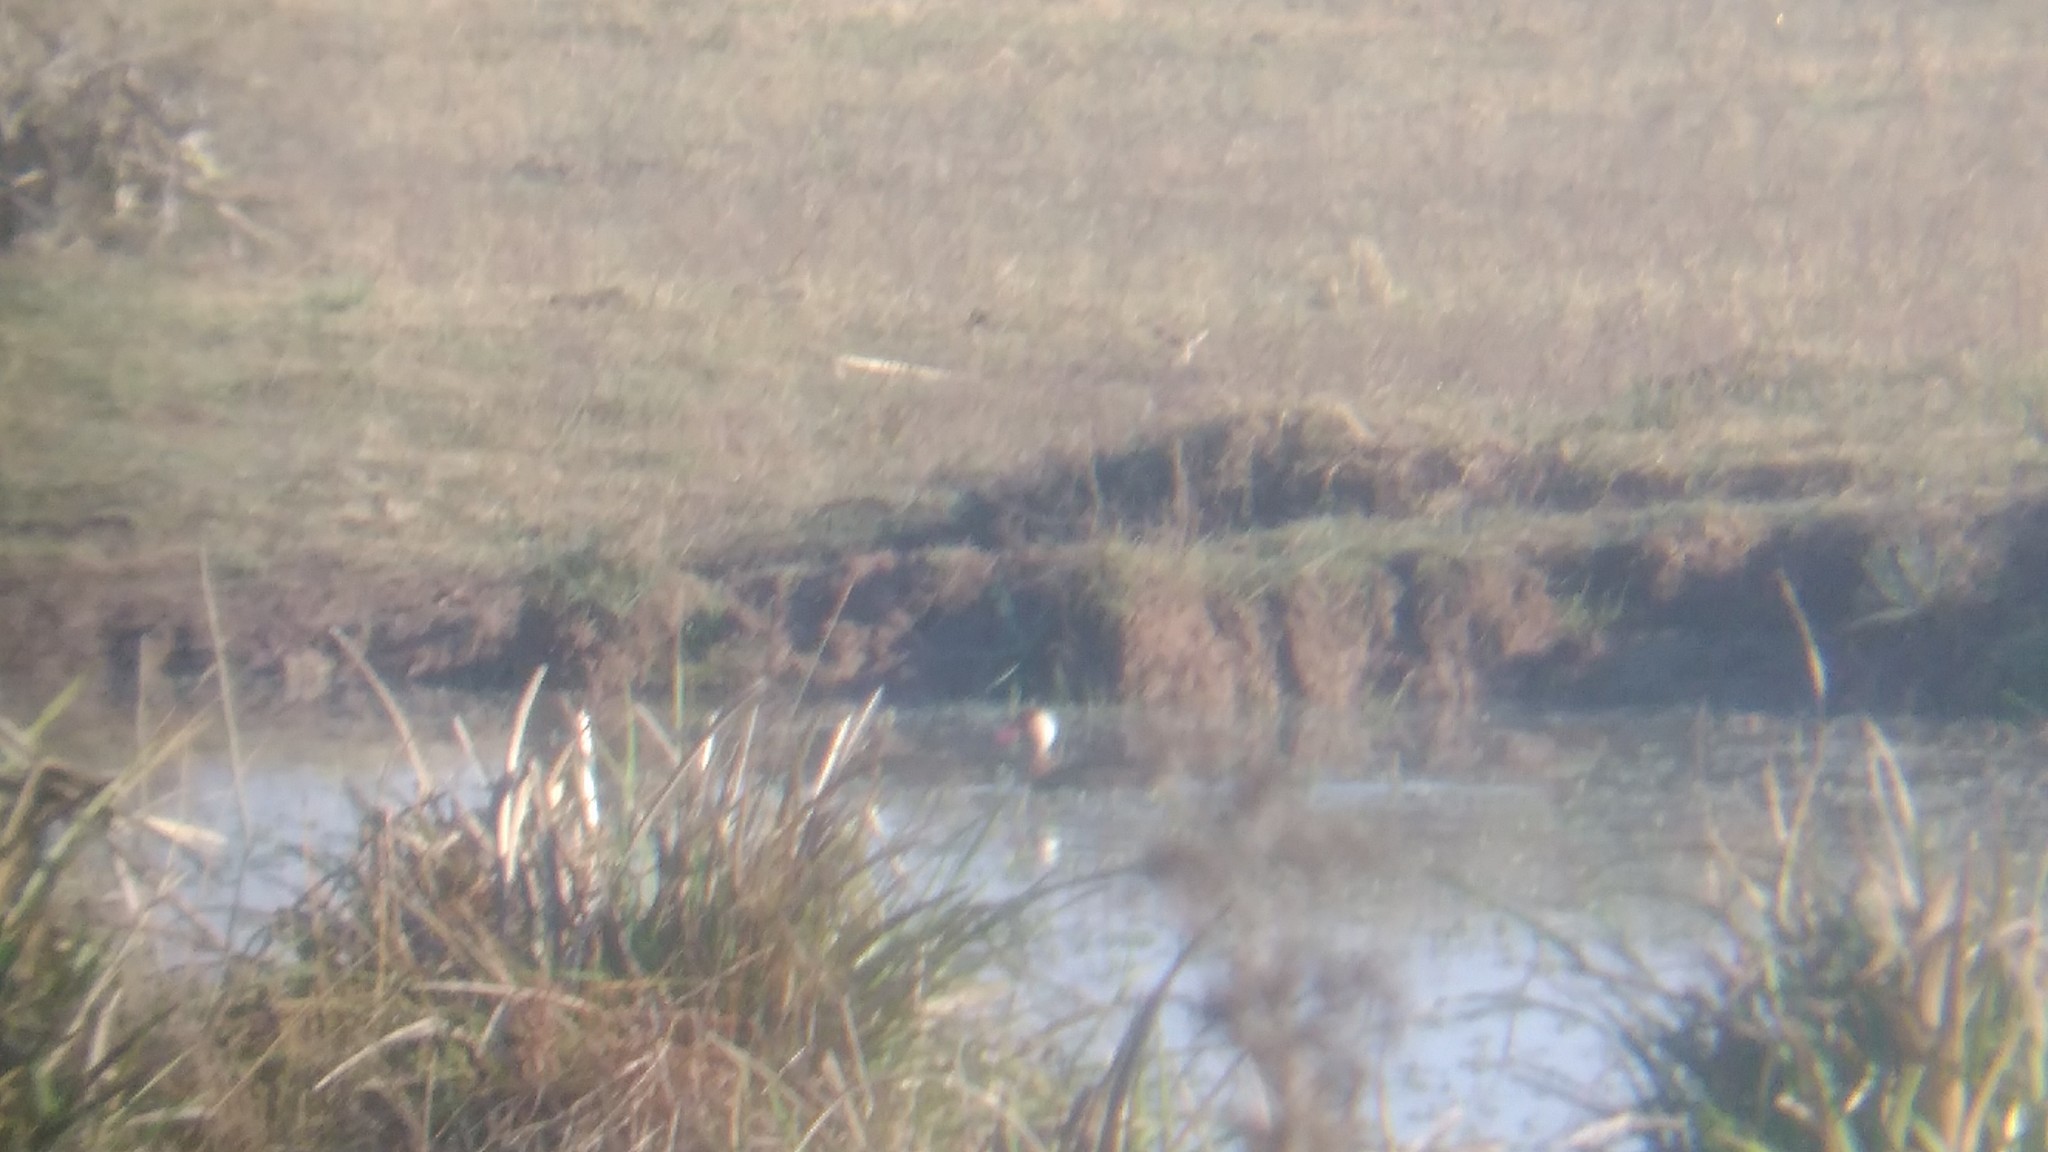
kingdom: Animalia
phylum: Chordata
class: Aves
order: Anseriformes
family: Anatidae
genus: Amazonetta
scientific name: Amazonetta brasiliensis
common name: Brazilian teal
